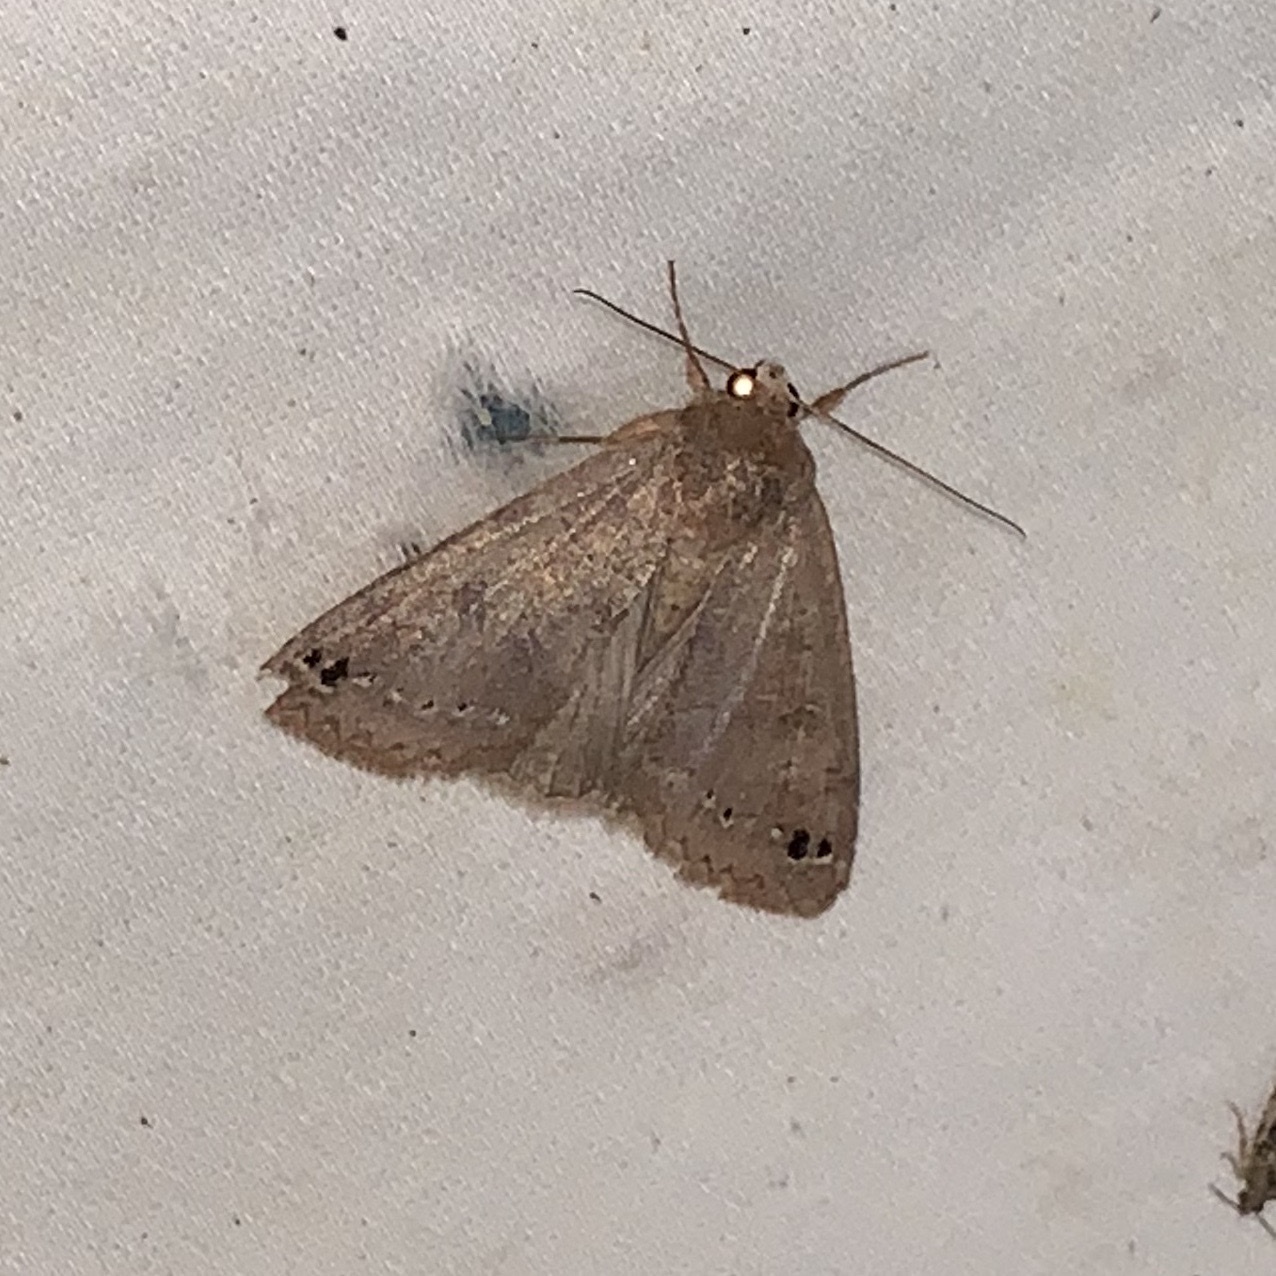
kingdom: Animalia
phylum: Arthropoda
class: Insecta
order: Lepidoptera
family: Erebidae
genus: Cissusa
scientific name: Cissusa spadix
